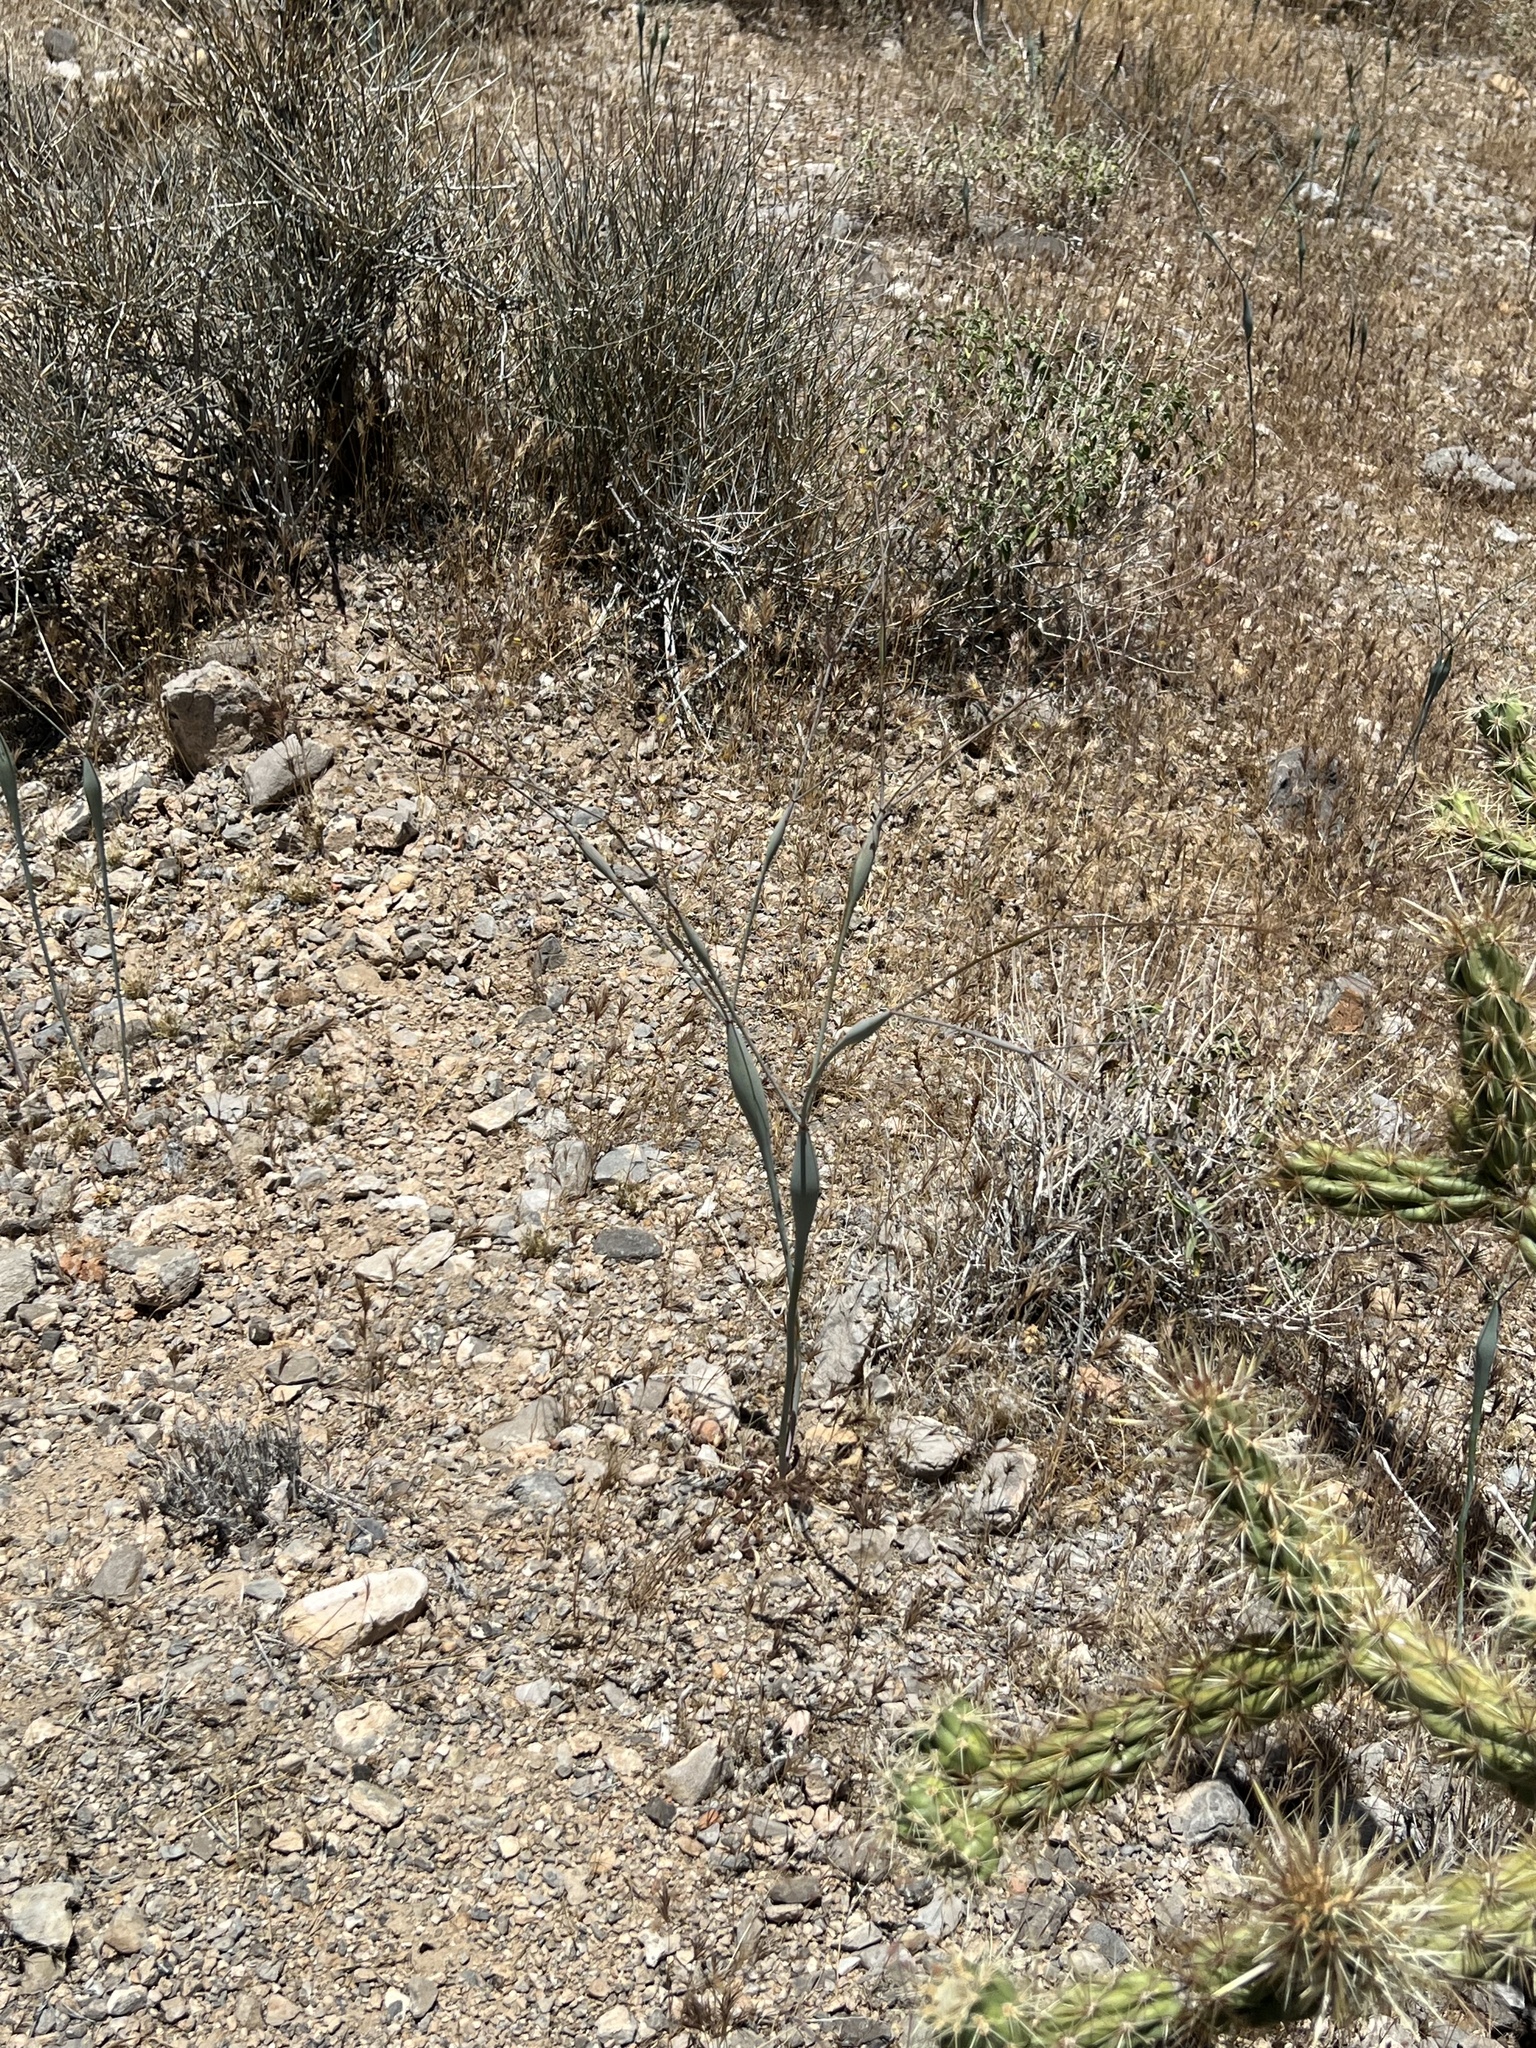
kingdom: Plantae
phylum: Tracheophyta
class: Magnoliopsida
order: Caryophyllales
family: Polygonaceae
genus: Eriogonum
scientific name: Eriogonum inflatum
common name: Desert trumpet
